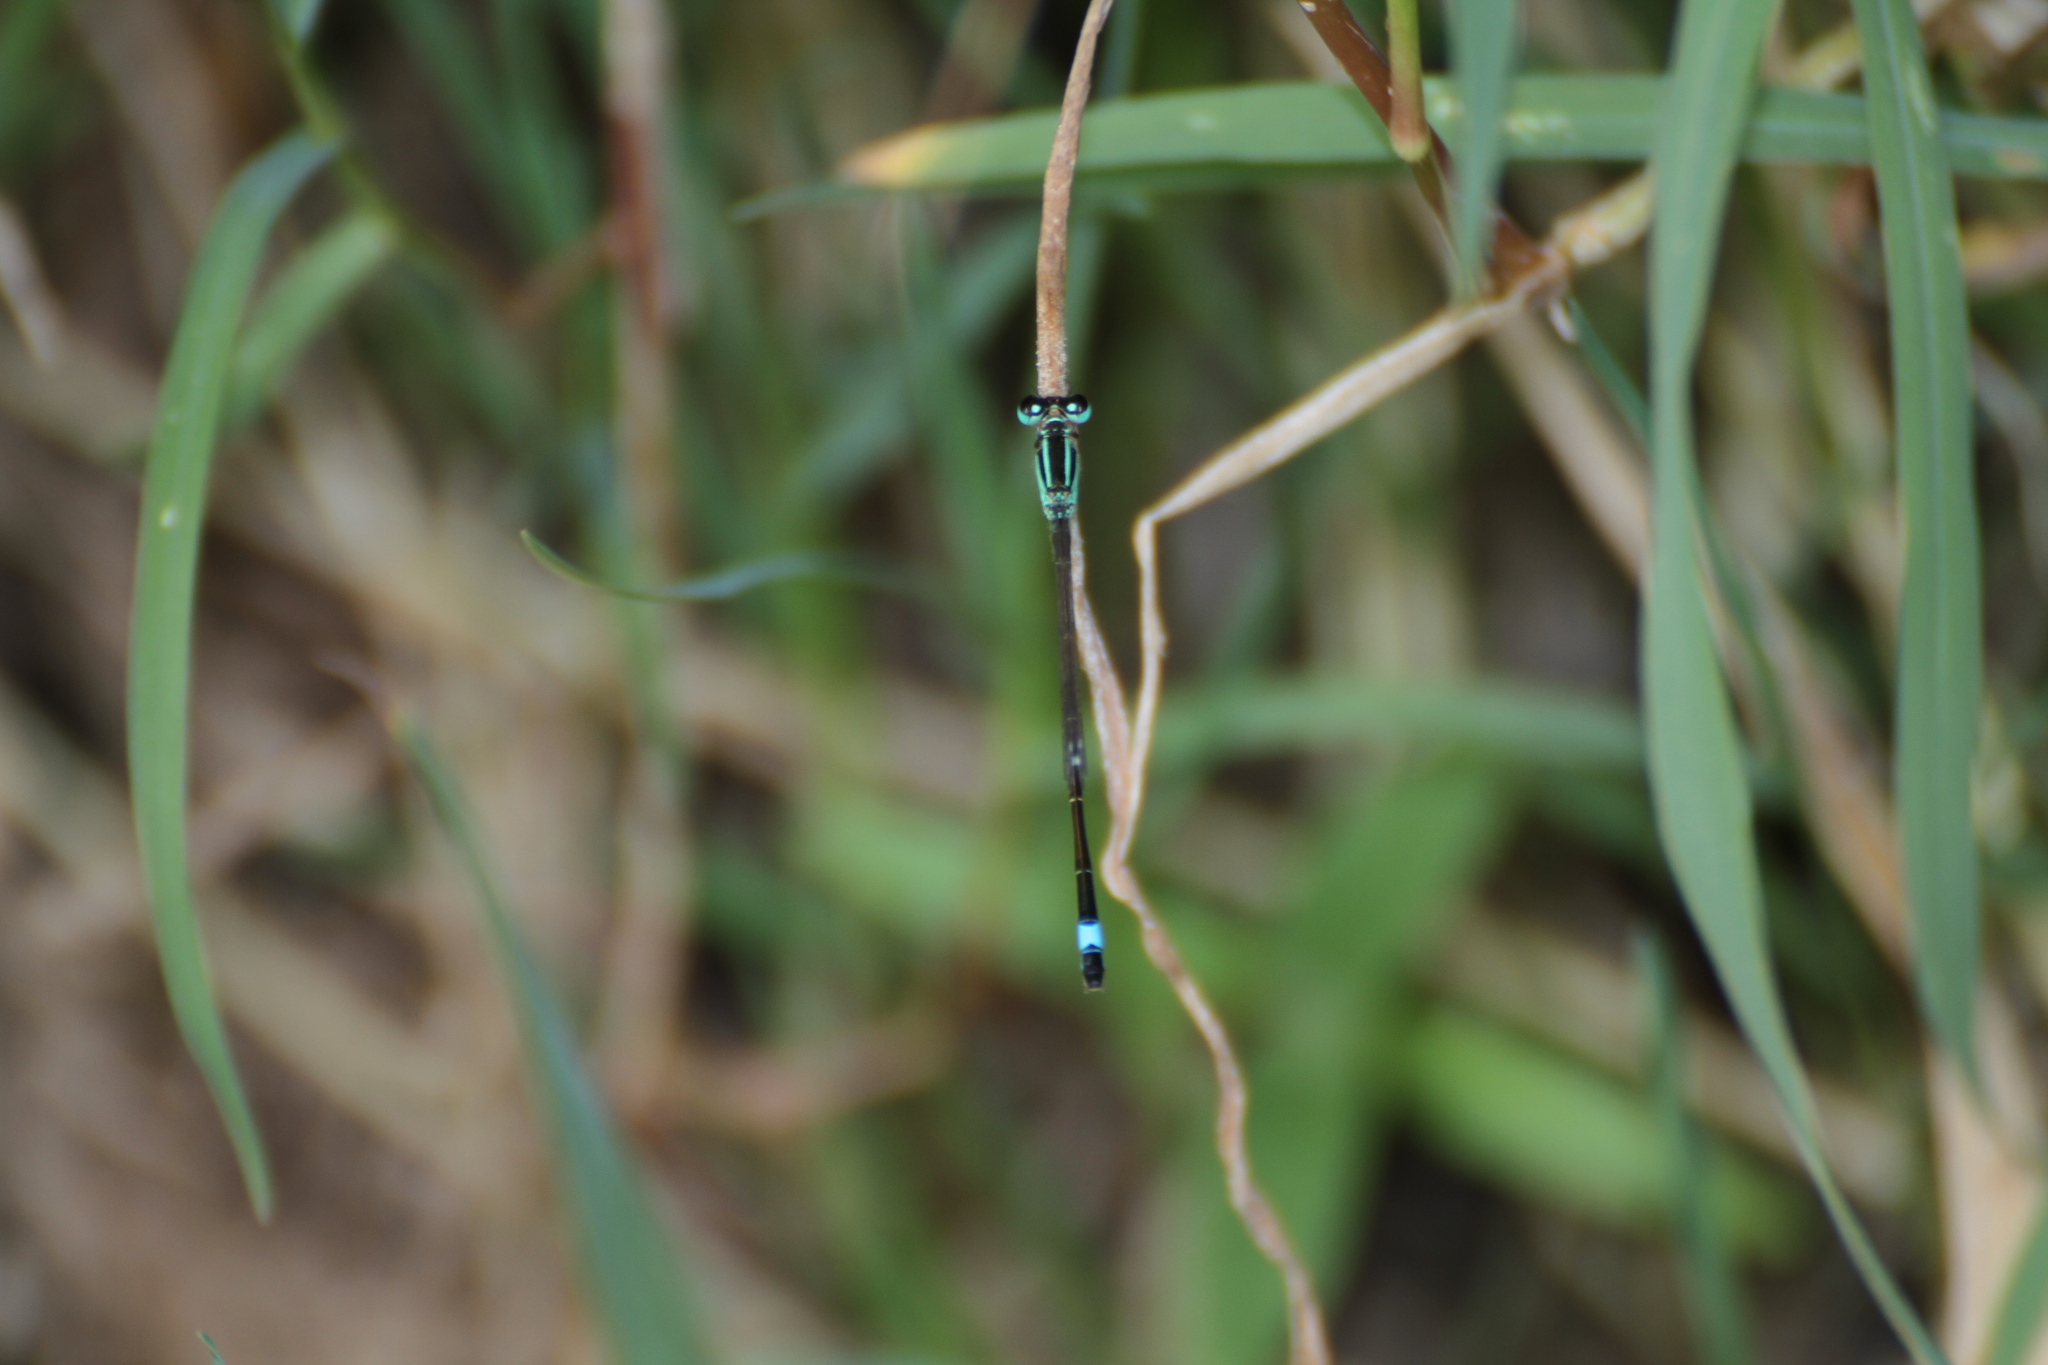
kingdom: Animalia
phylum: Arthropoda
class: Insecta
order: Odonata
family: Coenagrionidae
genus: Ischnura
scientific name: Ischnura elegans
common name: Blue-tailed damselfly
